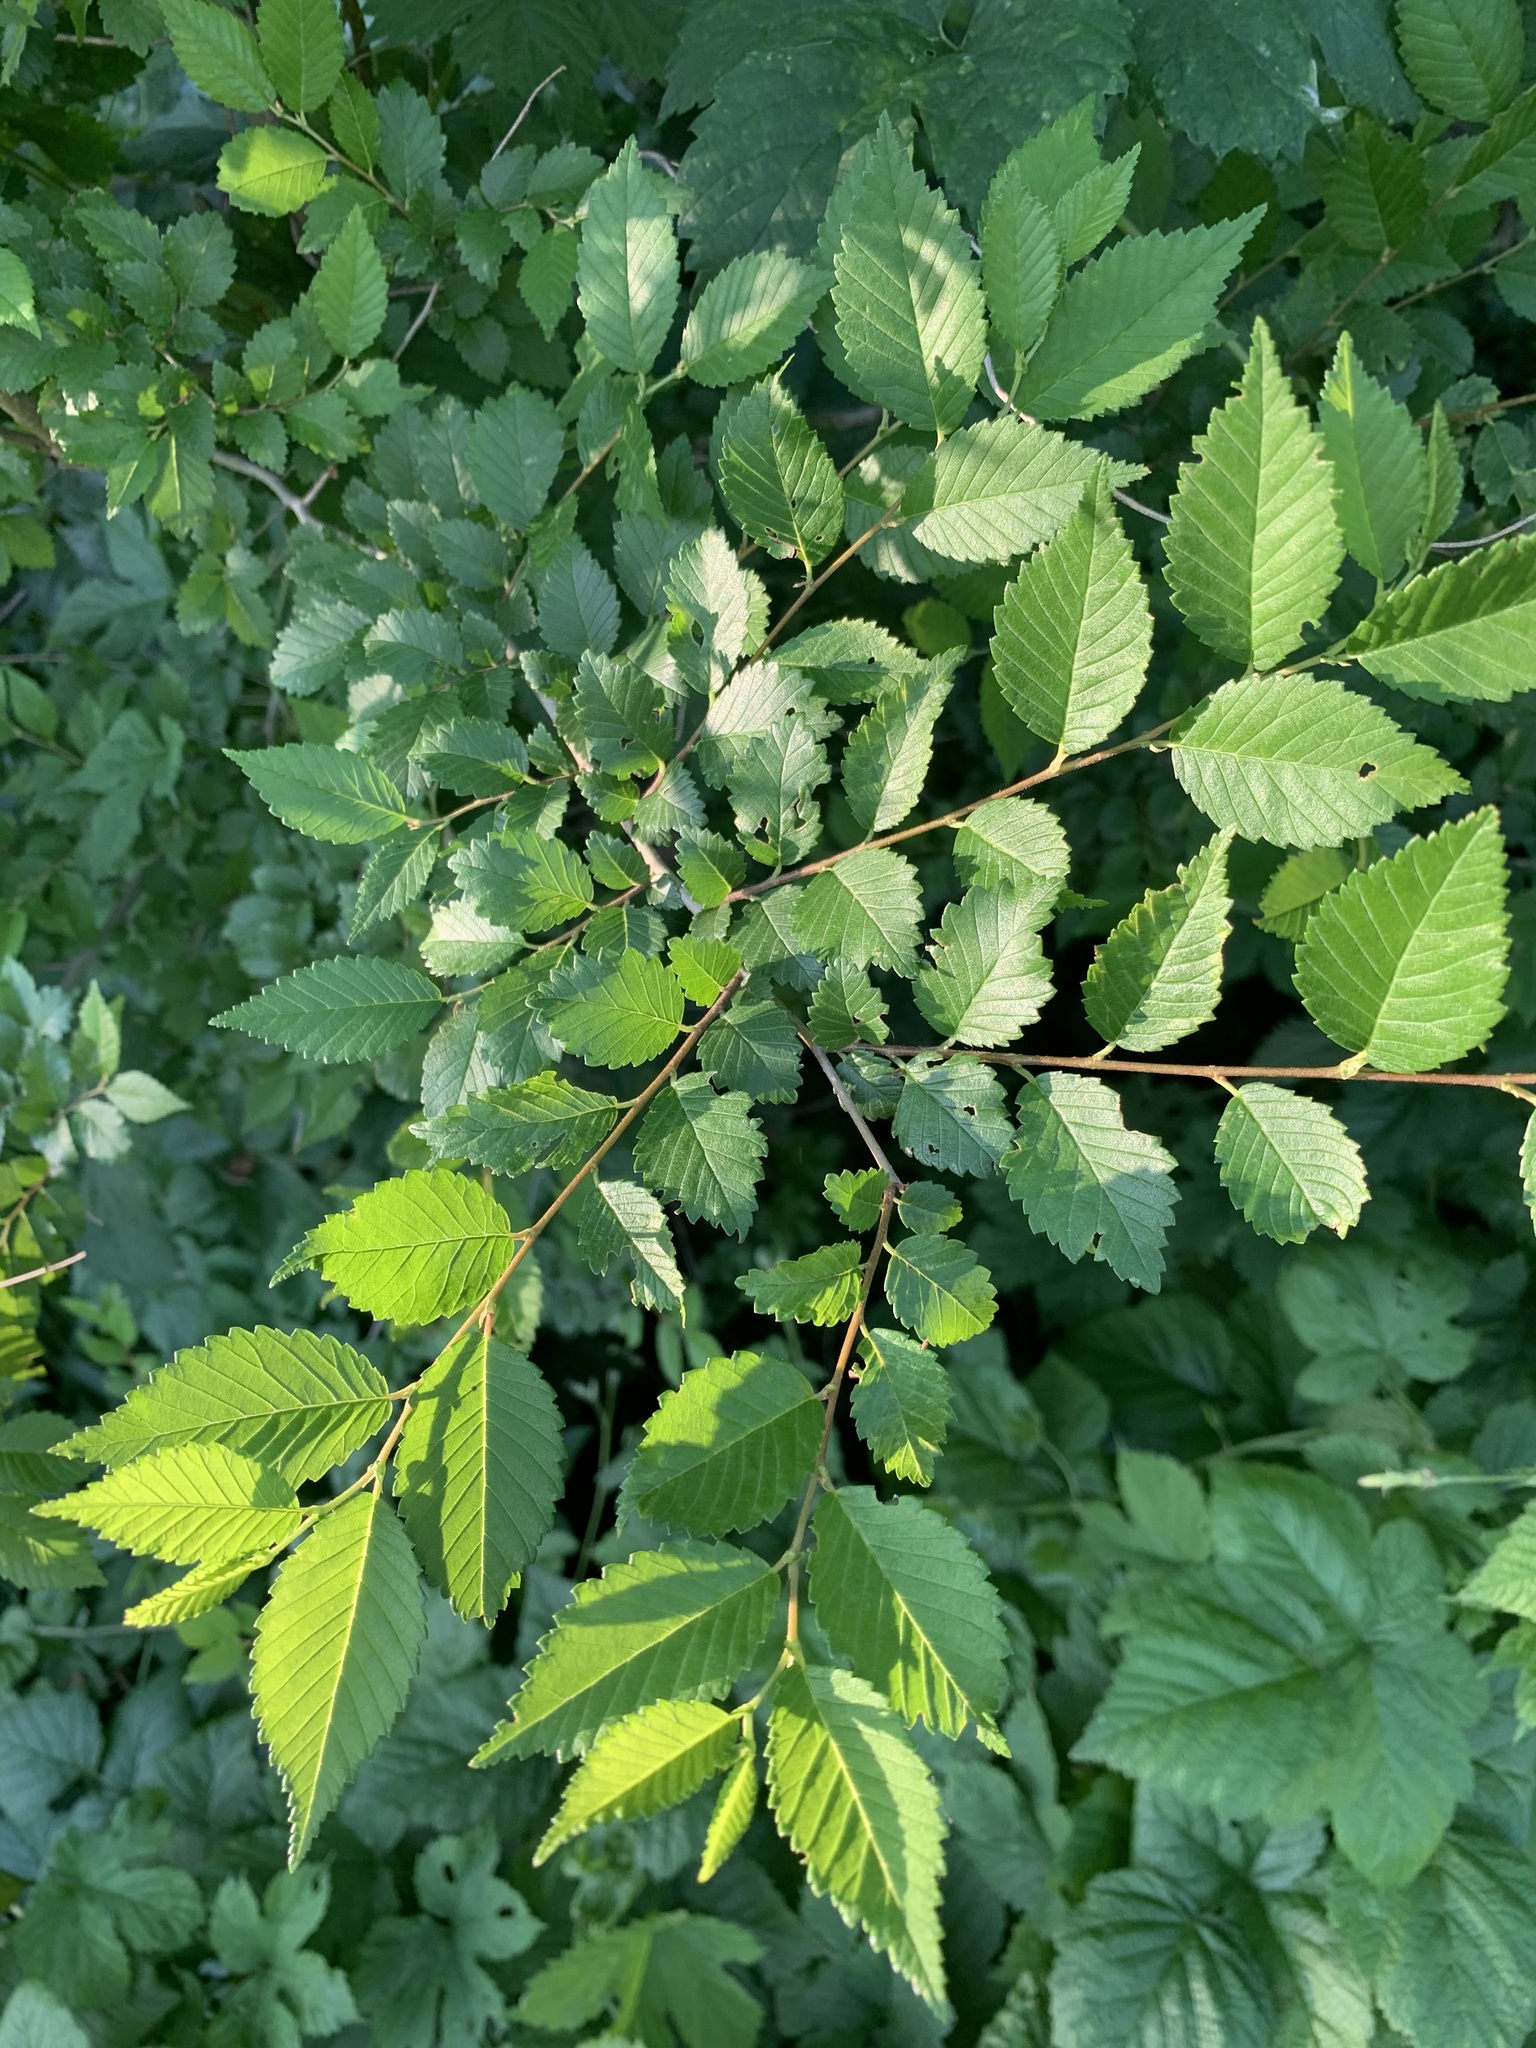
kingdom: Plantae
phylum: Tracheophyta
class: Magnoliopsida
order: Rosales
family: Ulmaceae
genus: Ulmus
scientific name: Ulmus pumila
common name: Siberian elm
